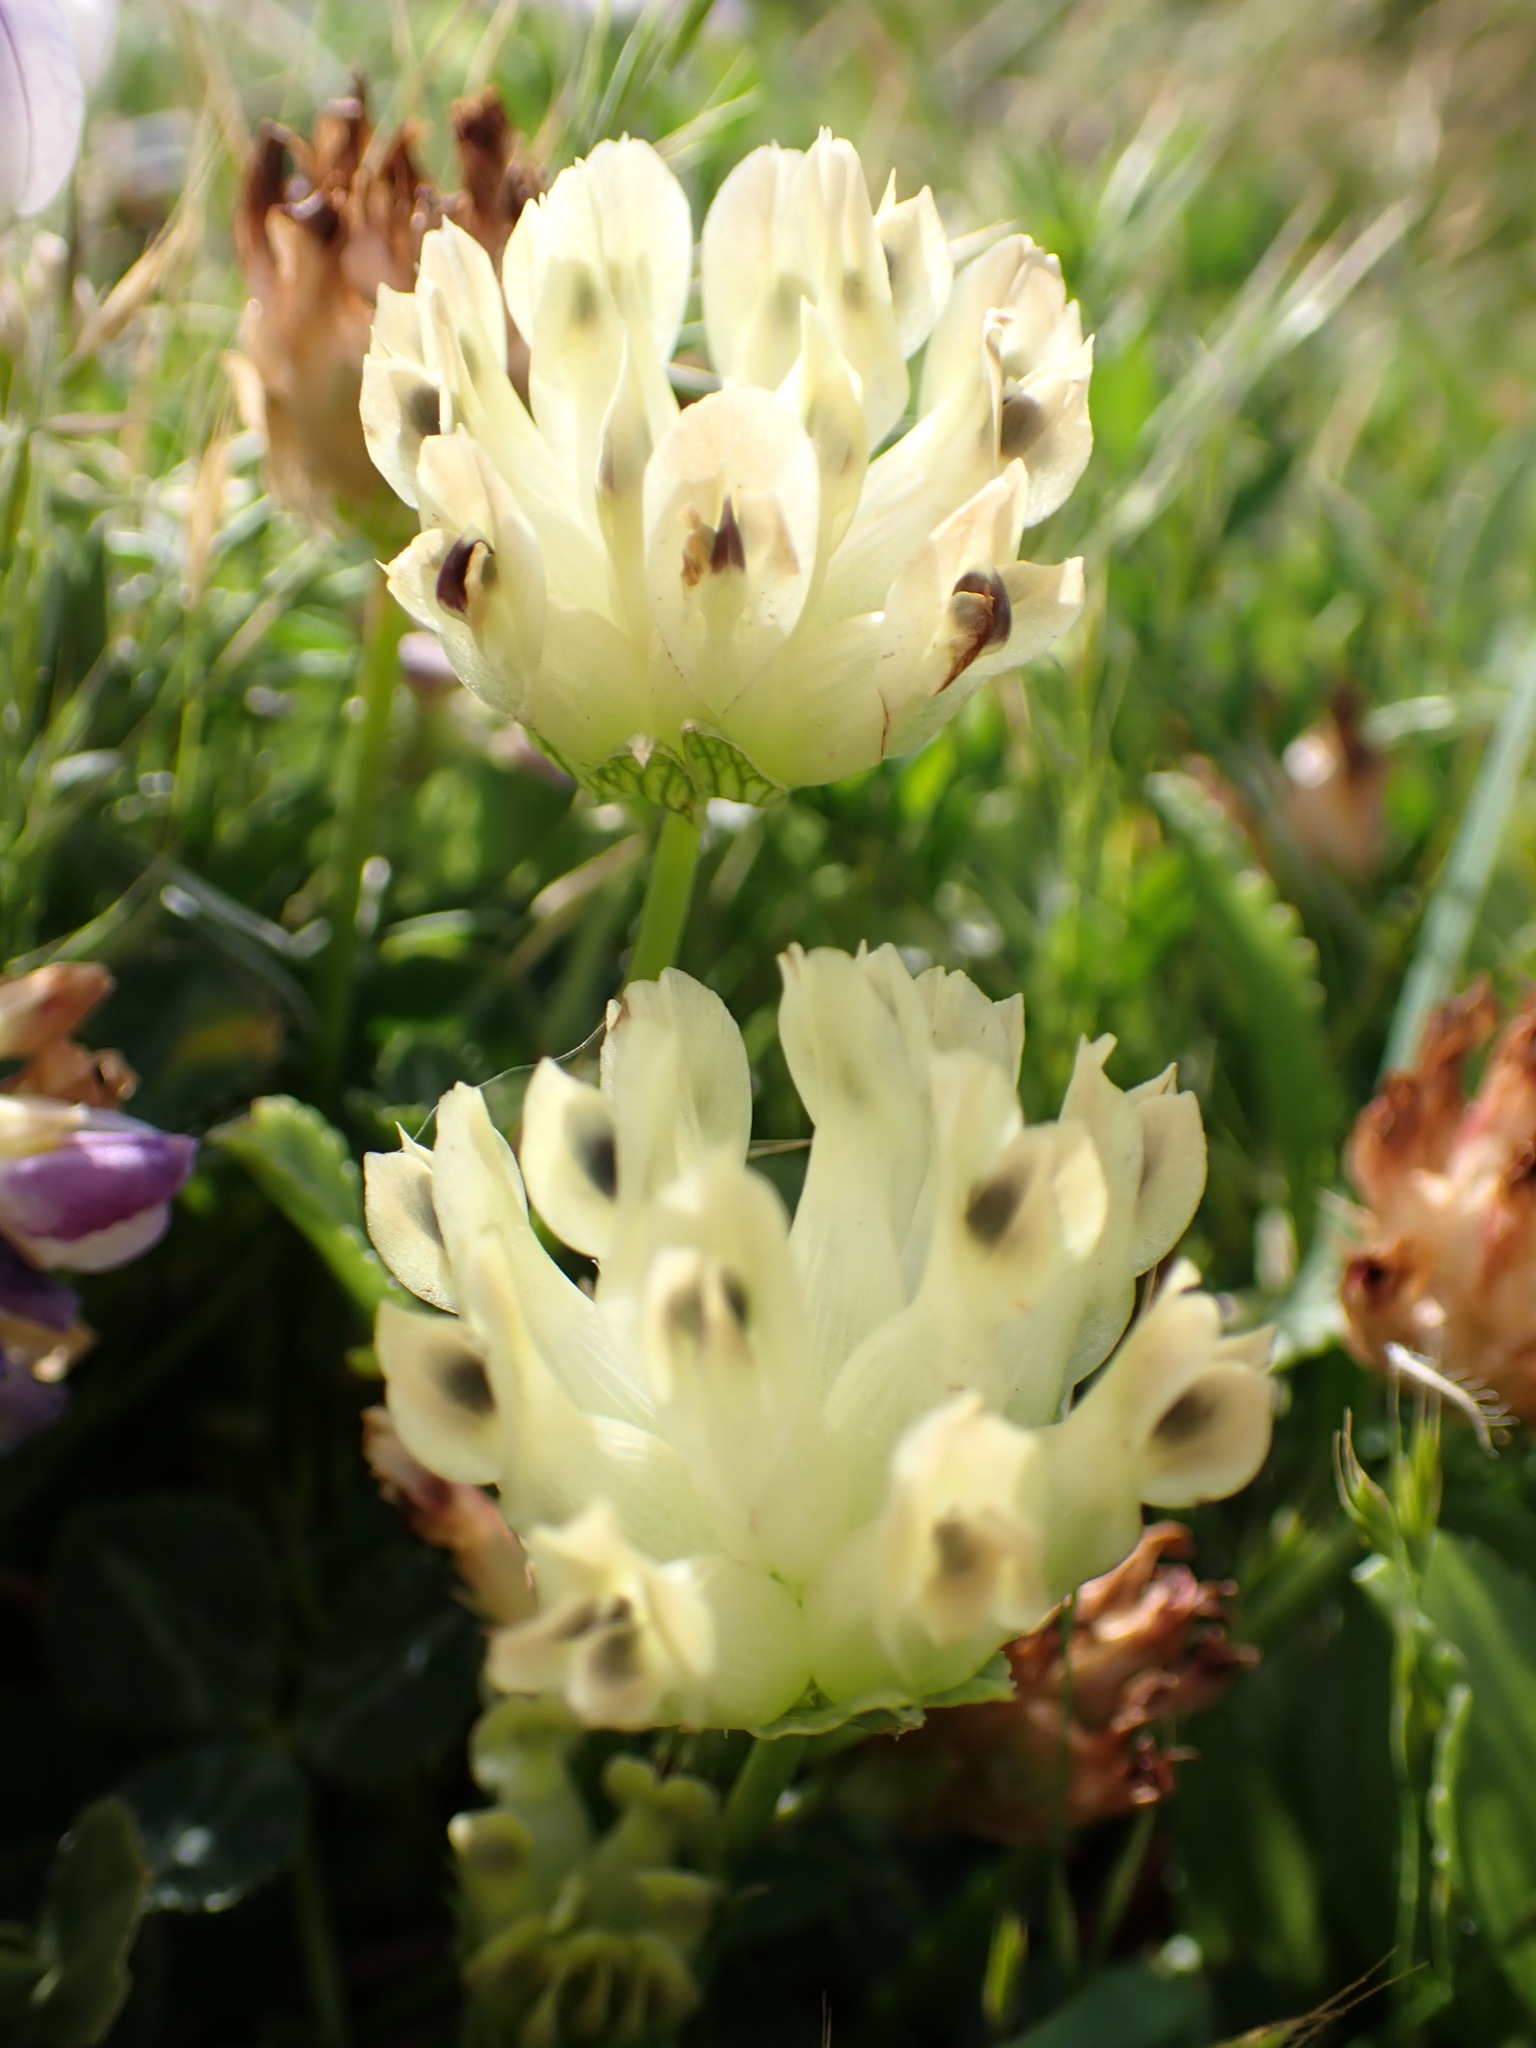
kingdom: Plantae
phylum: Tracheophyta
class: Magnoliopsida
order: Fabales
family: Fabaceae
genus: Trifolium
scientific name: Trifolium fucatum
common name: Puff clover
